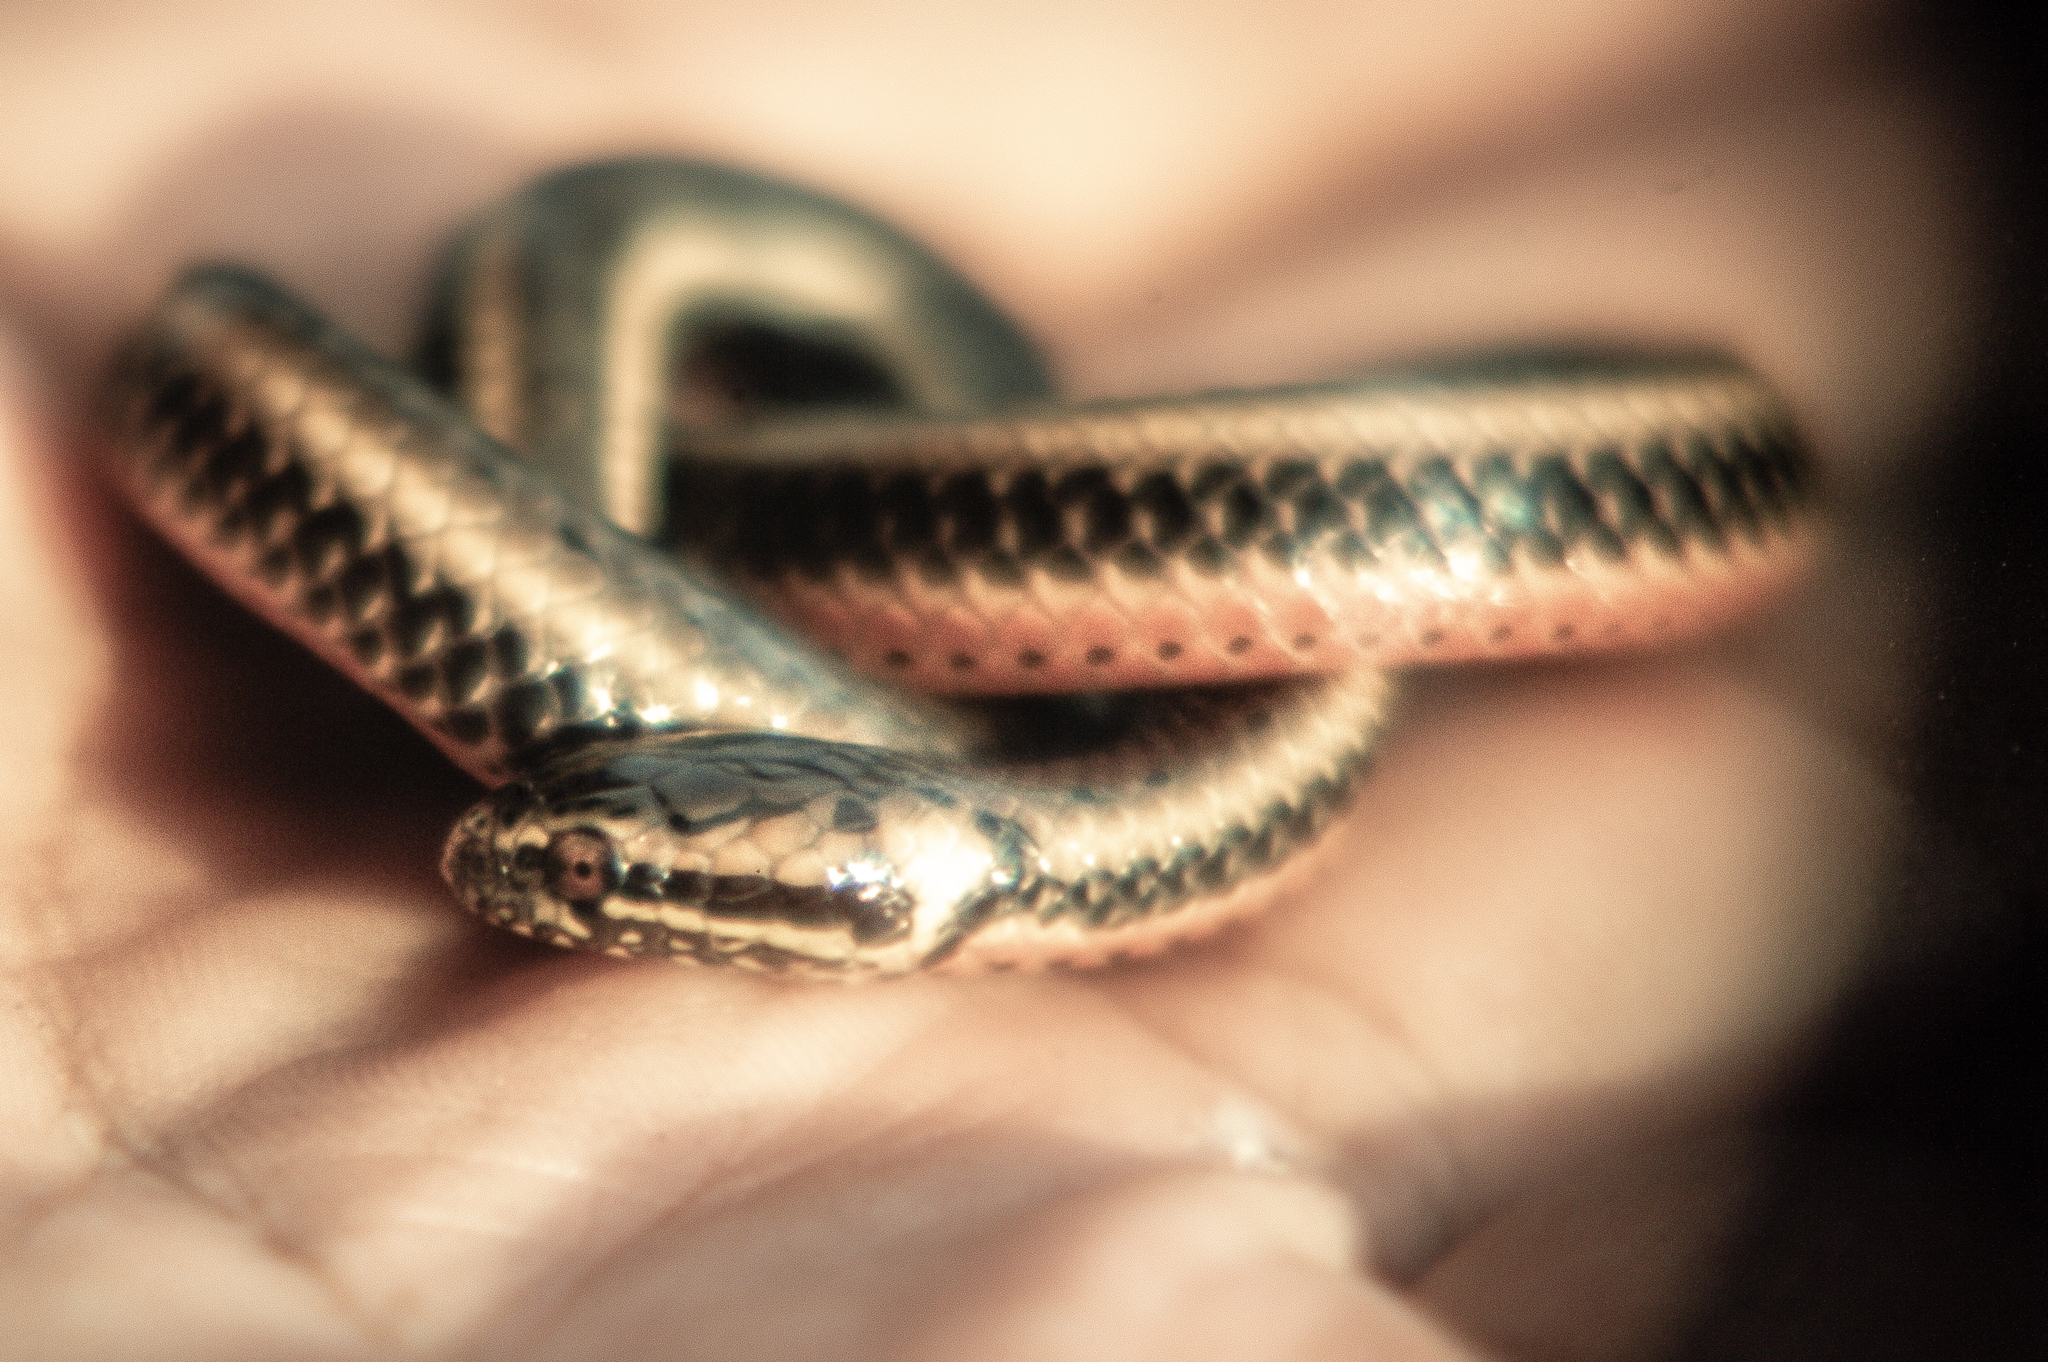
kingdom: Animalia
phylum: Chordata
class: Squamata
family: Colubridae
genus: Pseudoeryx
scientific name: Pseudoeryx plicatilis
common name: South american pond snake
